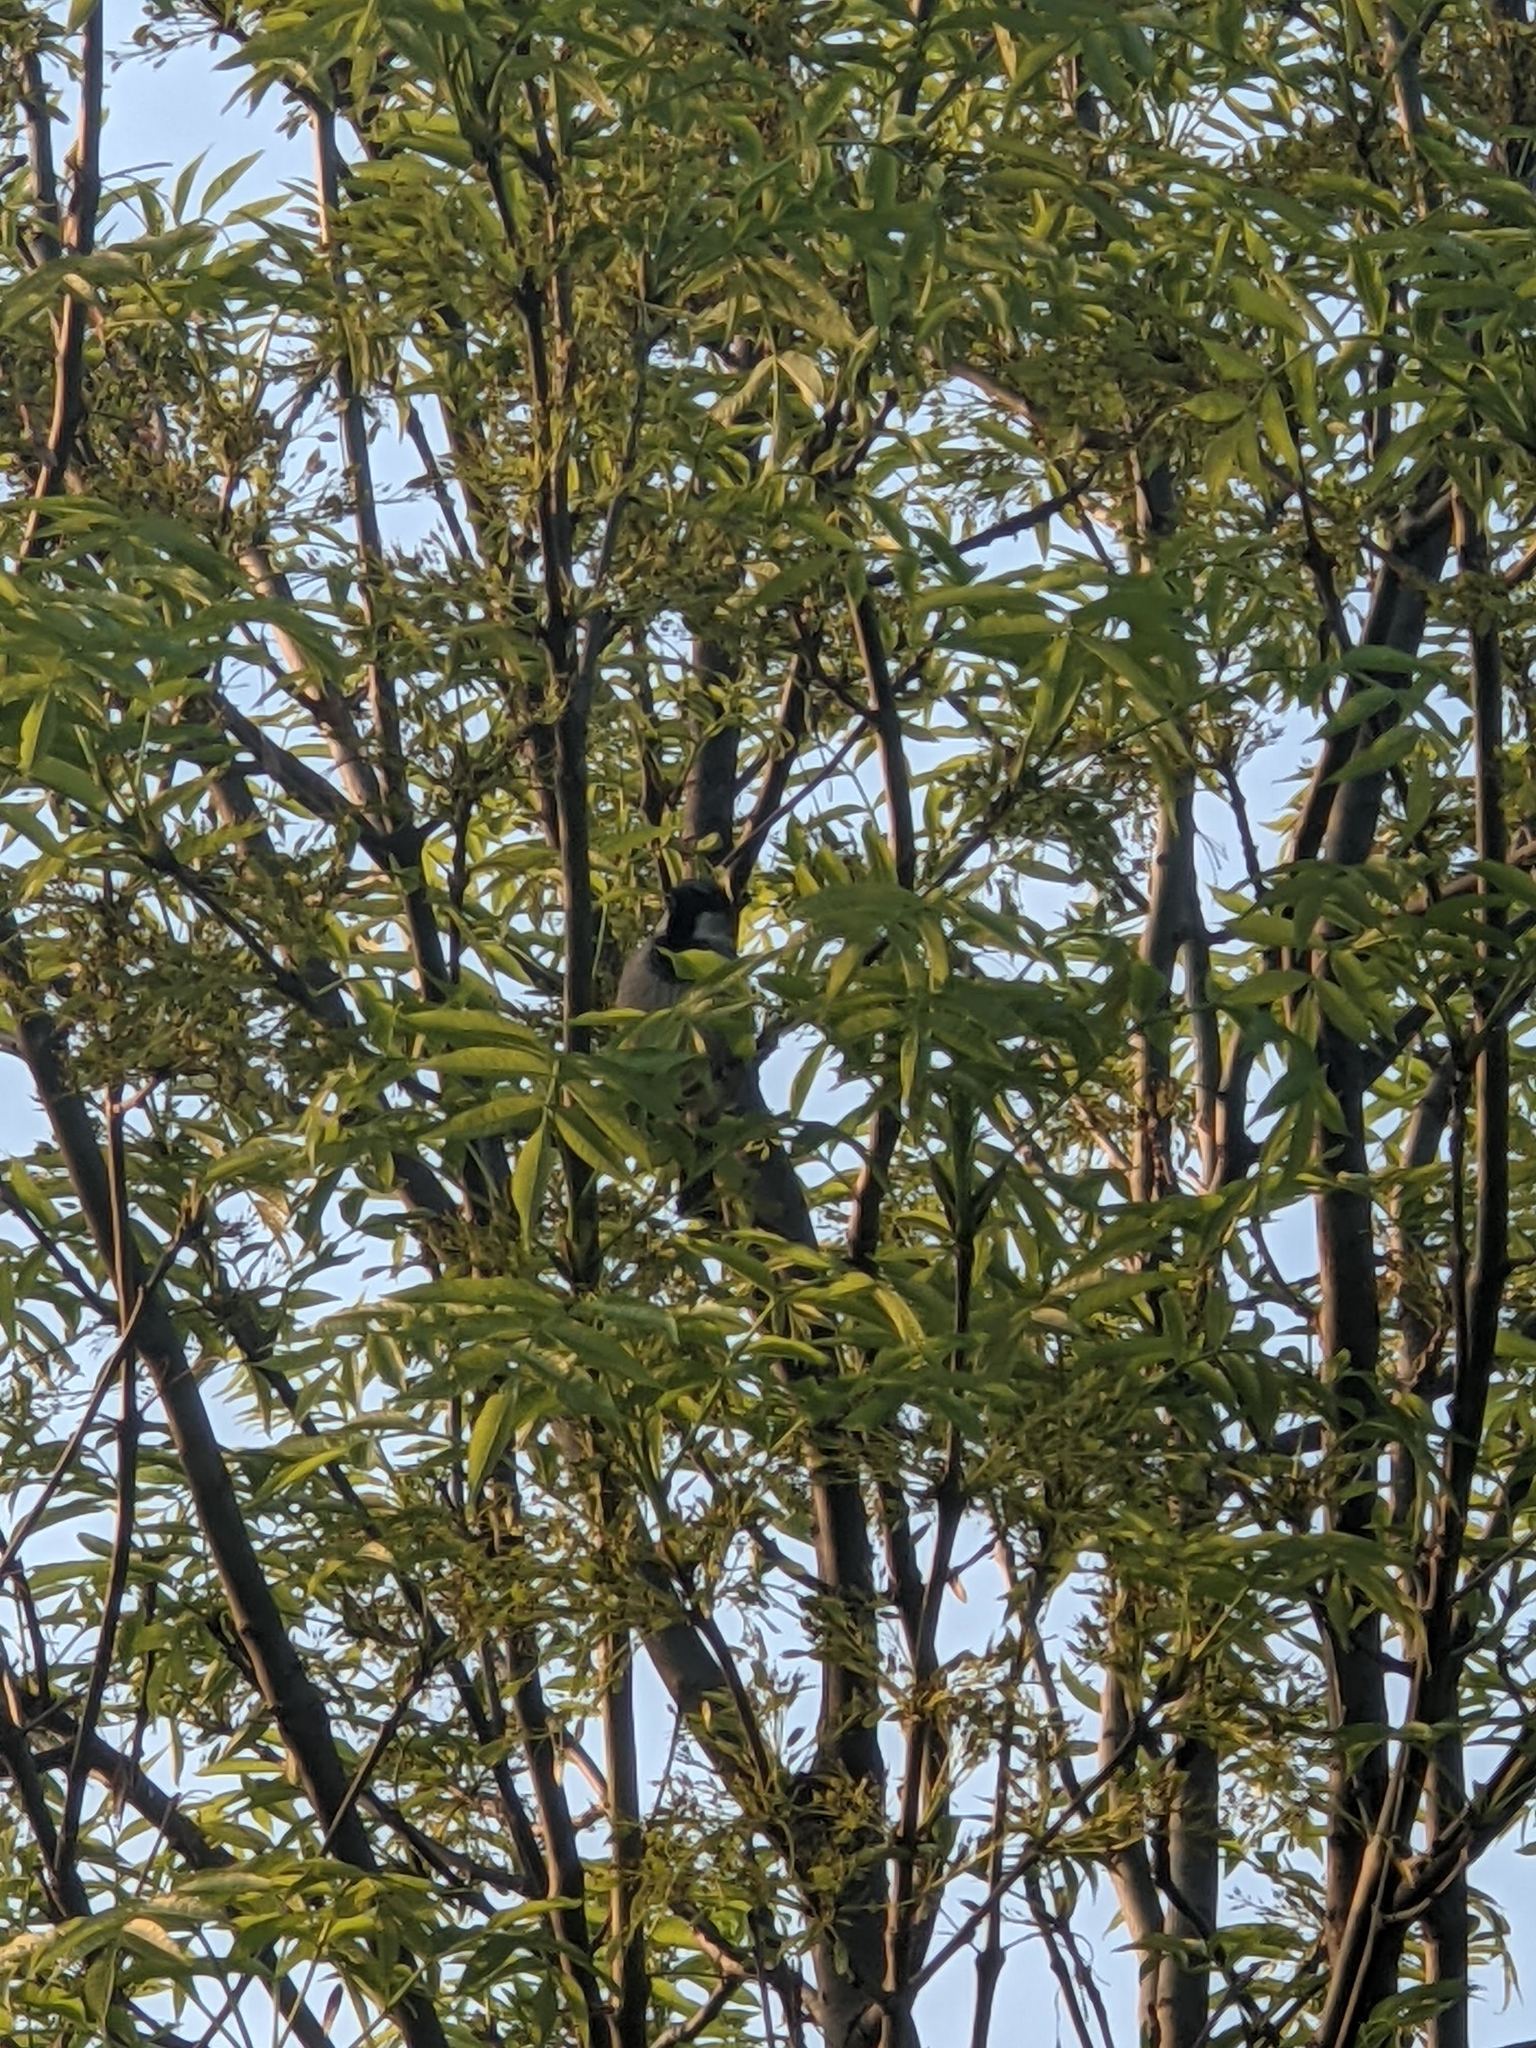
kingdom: Animalia
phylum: Chordata
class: Aves
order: Passeriformes
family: Passeridae
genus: Passer
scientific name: Passer domesticus
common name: House sparrow
